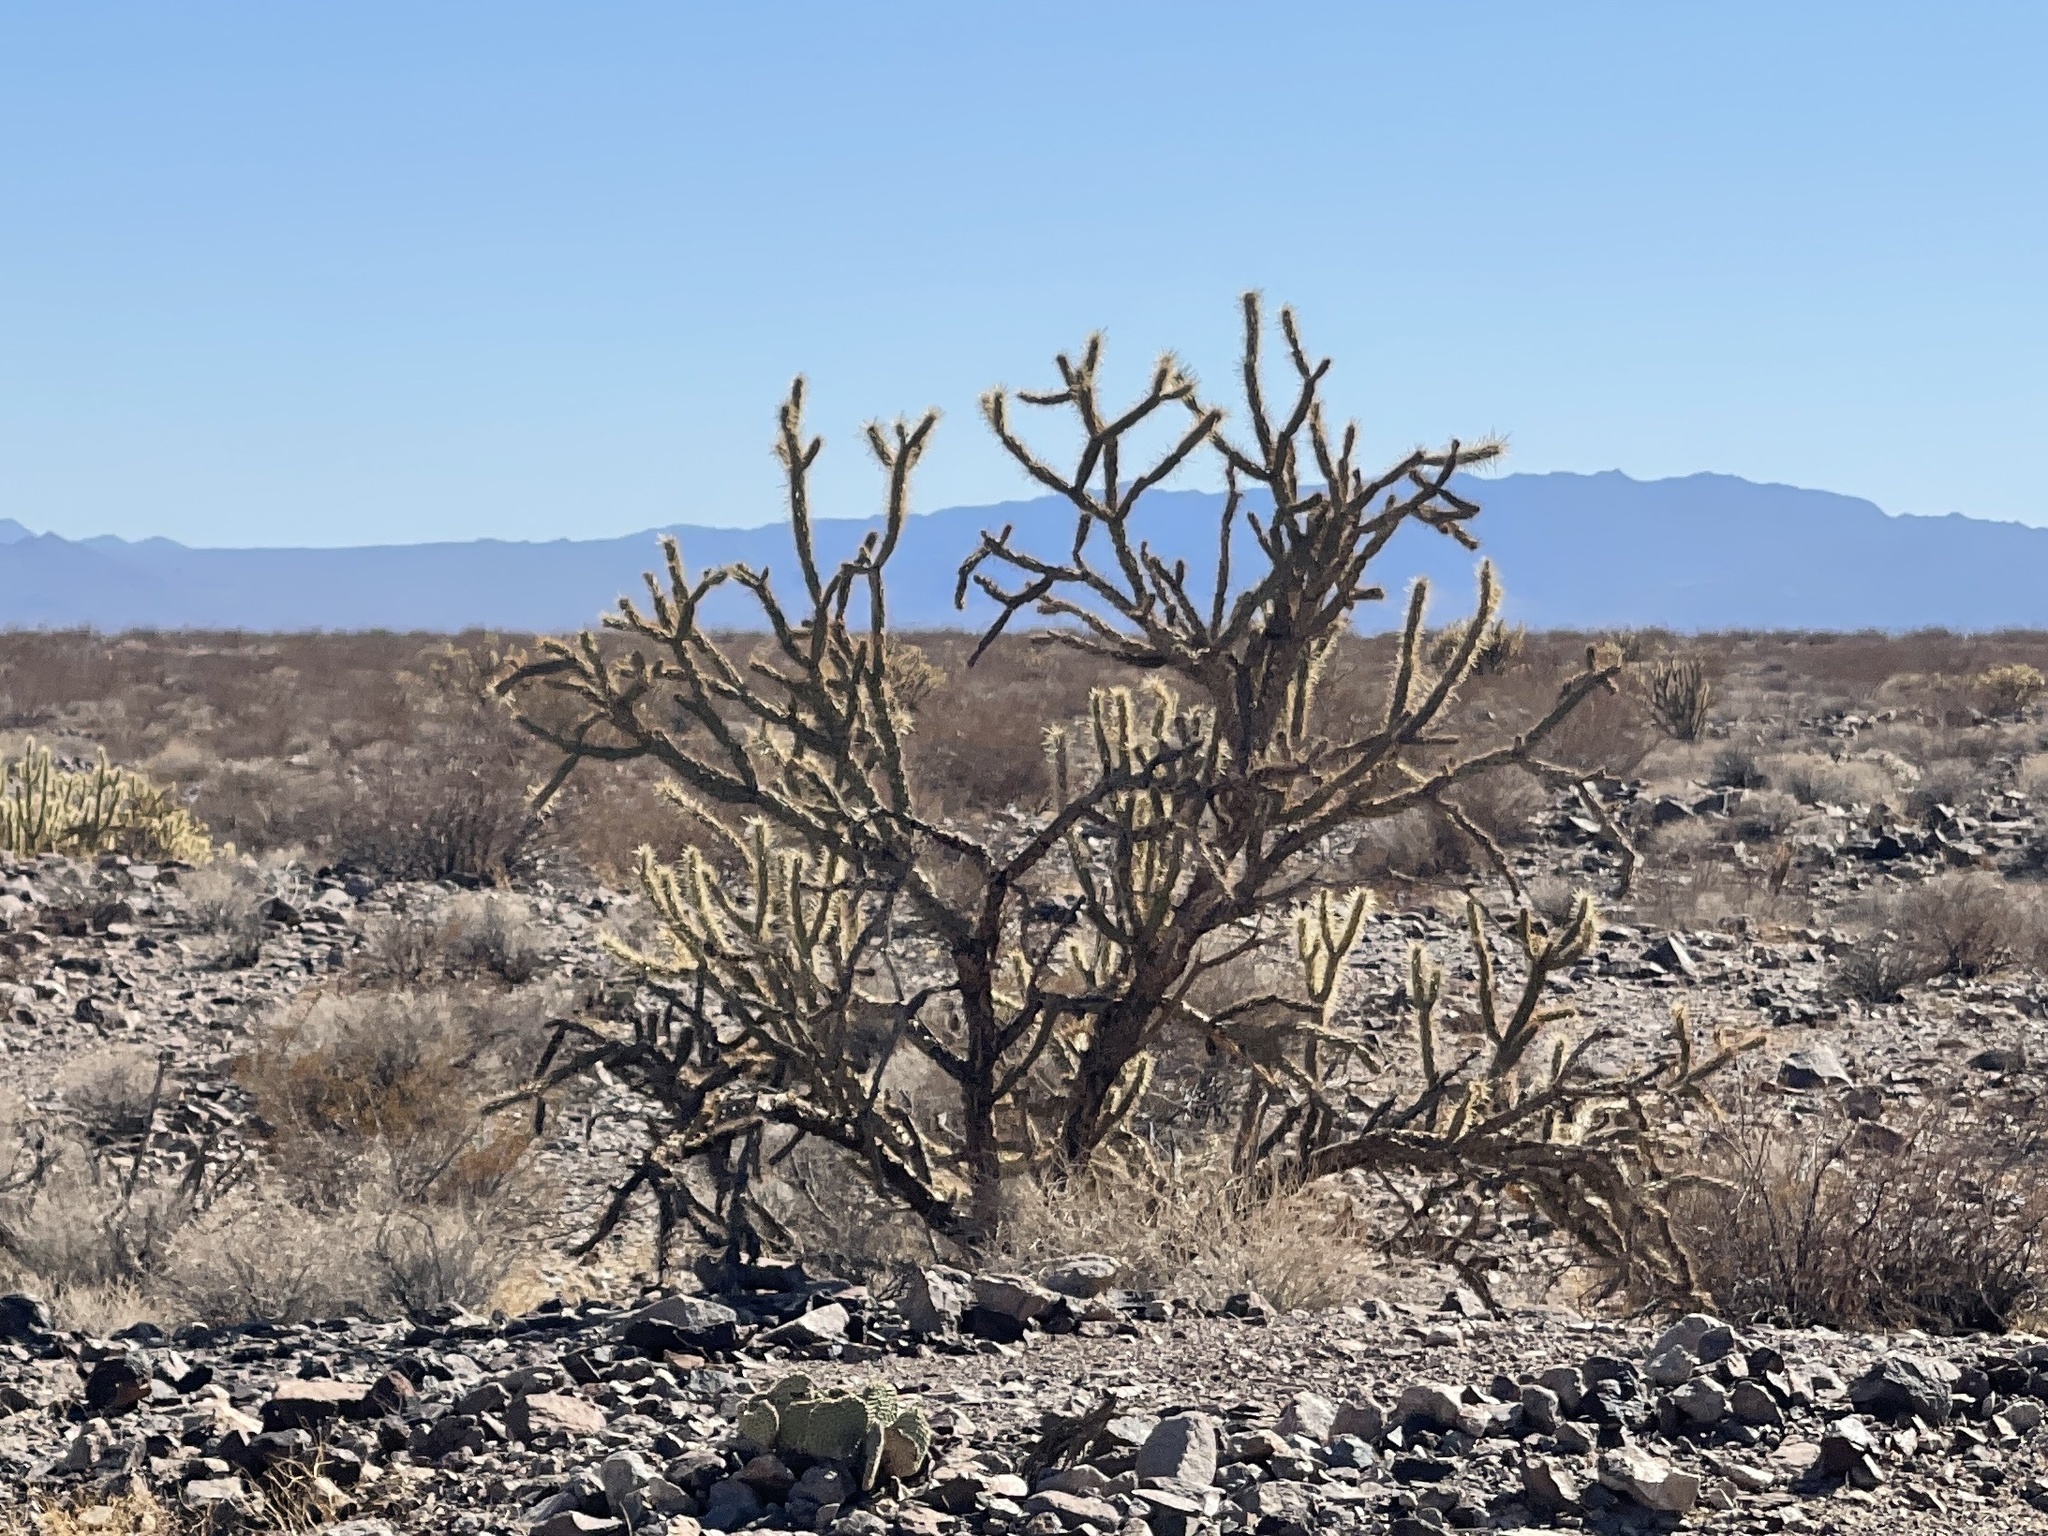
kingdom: Plantae
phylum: Tracheophyta
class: Magnoliopsida
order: Caryophyllales
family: Cactaceae
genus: Cylindropuntia
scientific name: Cylindropuntia acanthocarpa
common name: Buckhorn cholla
